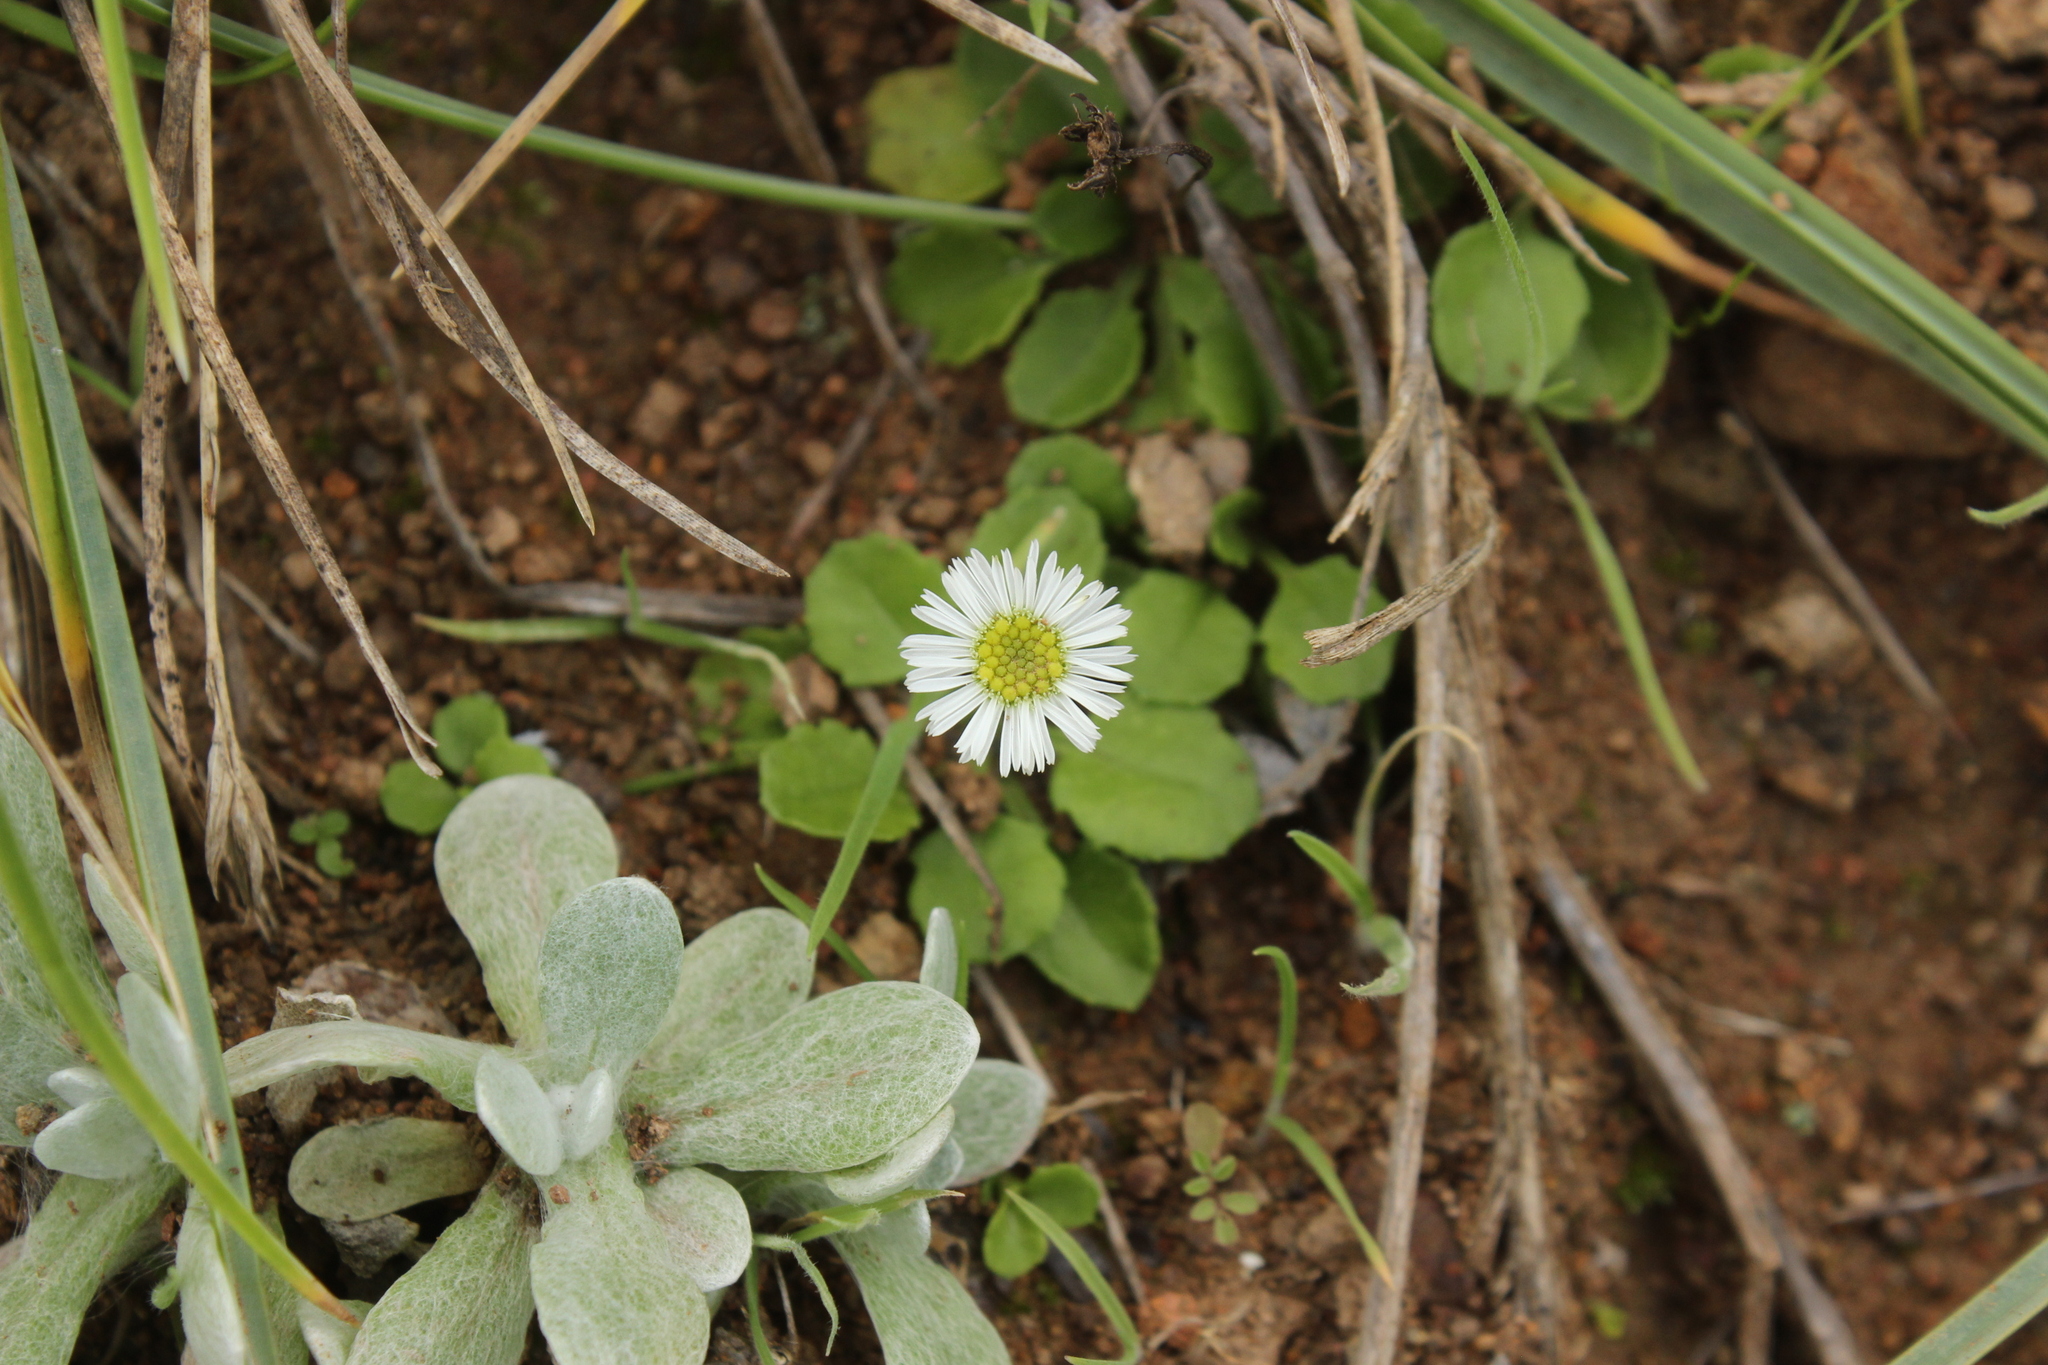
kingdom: Plantae
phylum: Tracheophyta
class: Magnoliopsida
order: Asterales
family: Asteraceae
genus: Lagenophora
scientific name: Lagenophora pumila
